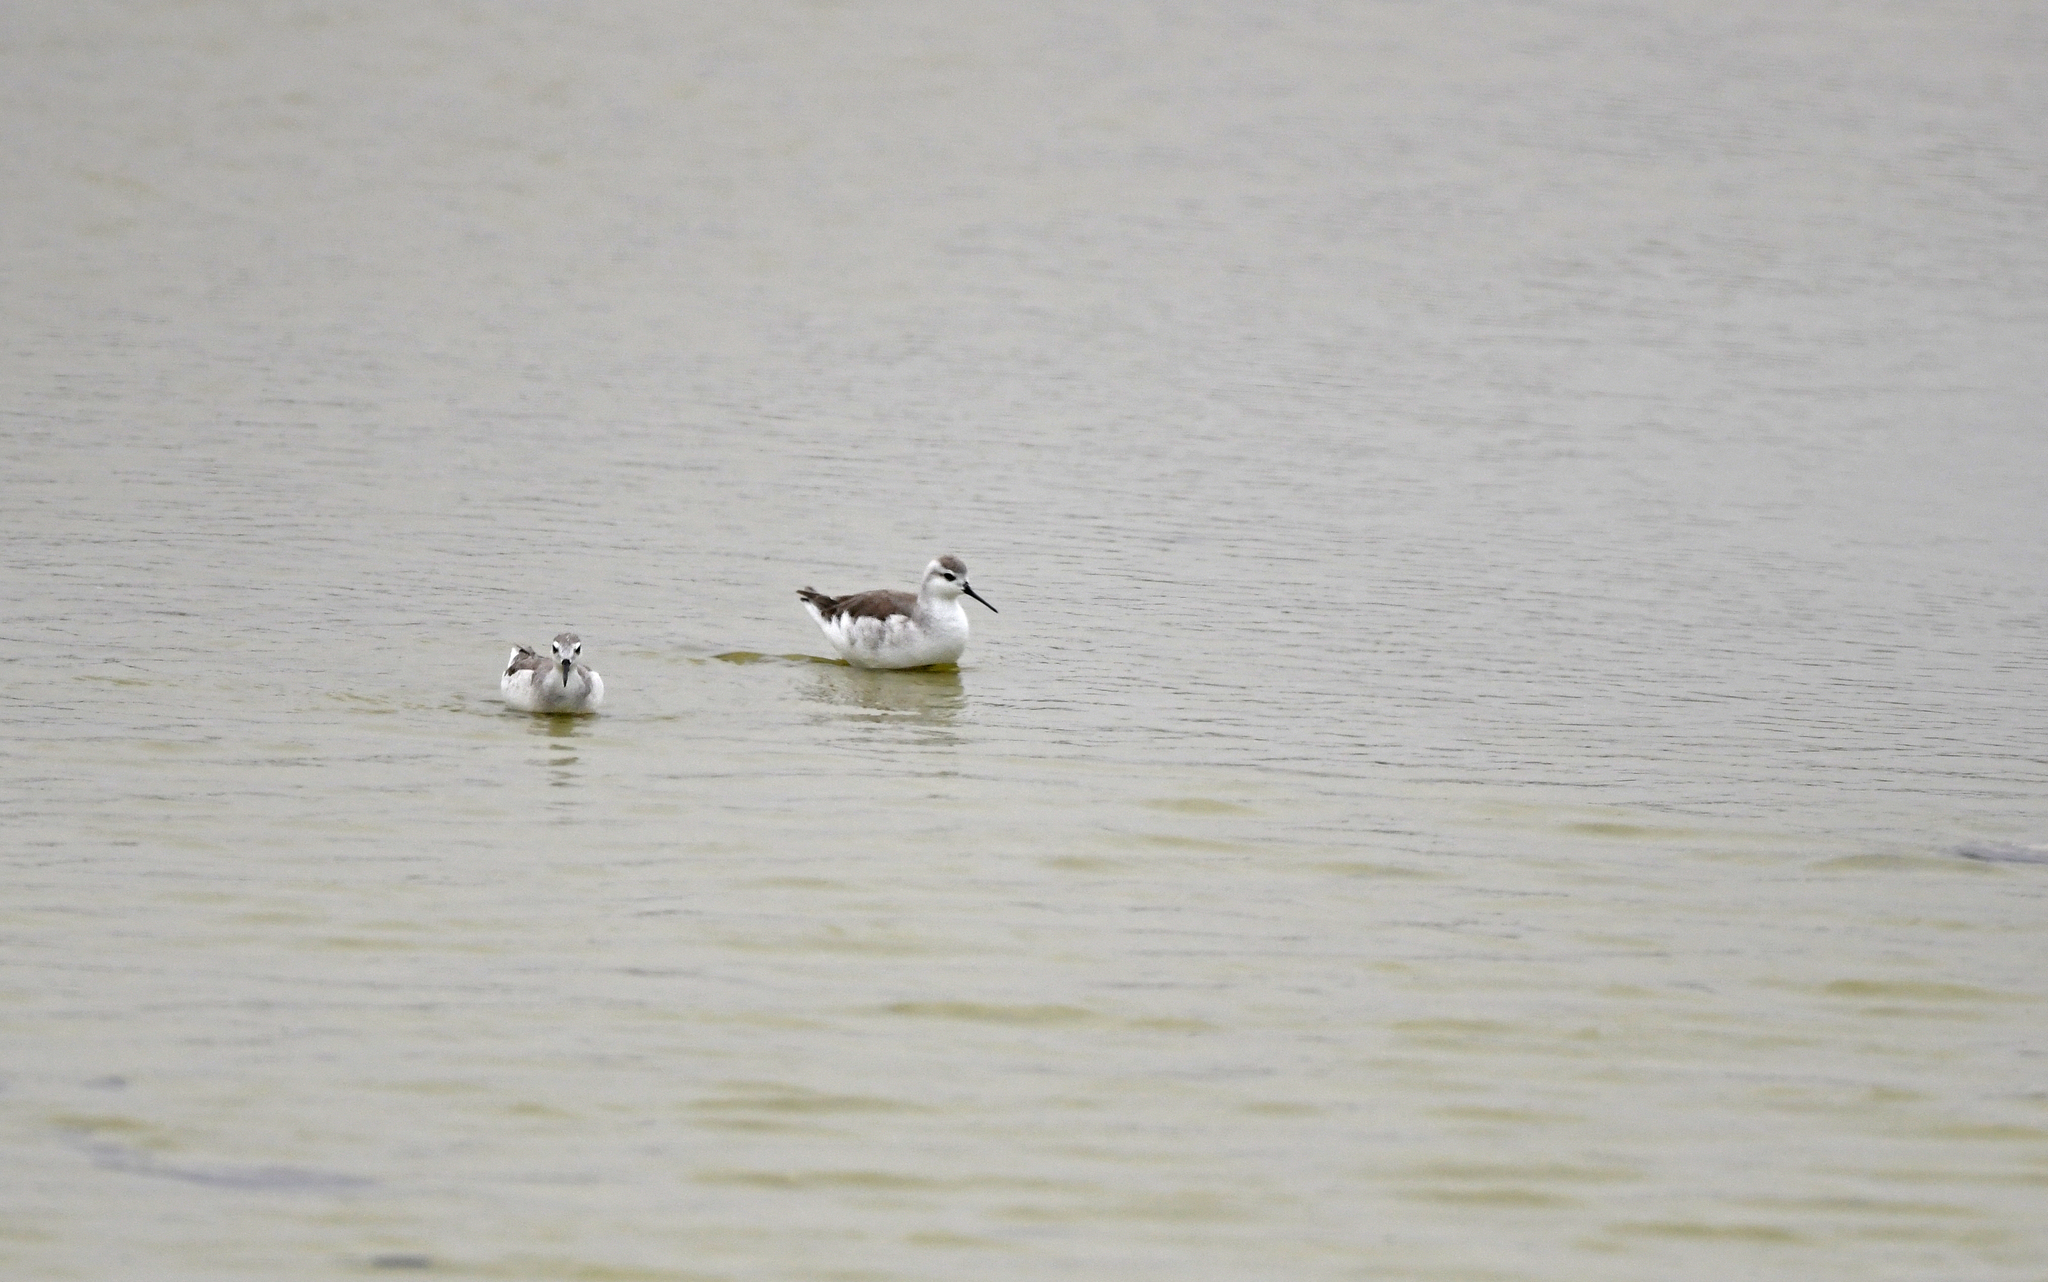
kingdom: Animalia
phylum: Chordata
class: Aves
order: Charadriiformes
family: Scolopacidae
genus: Phalaropus
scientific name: Phalaropus tricolor
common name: Wilson's phalarope
